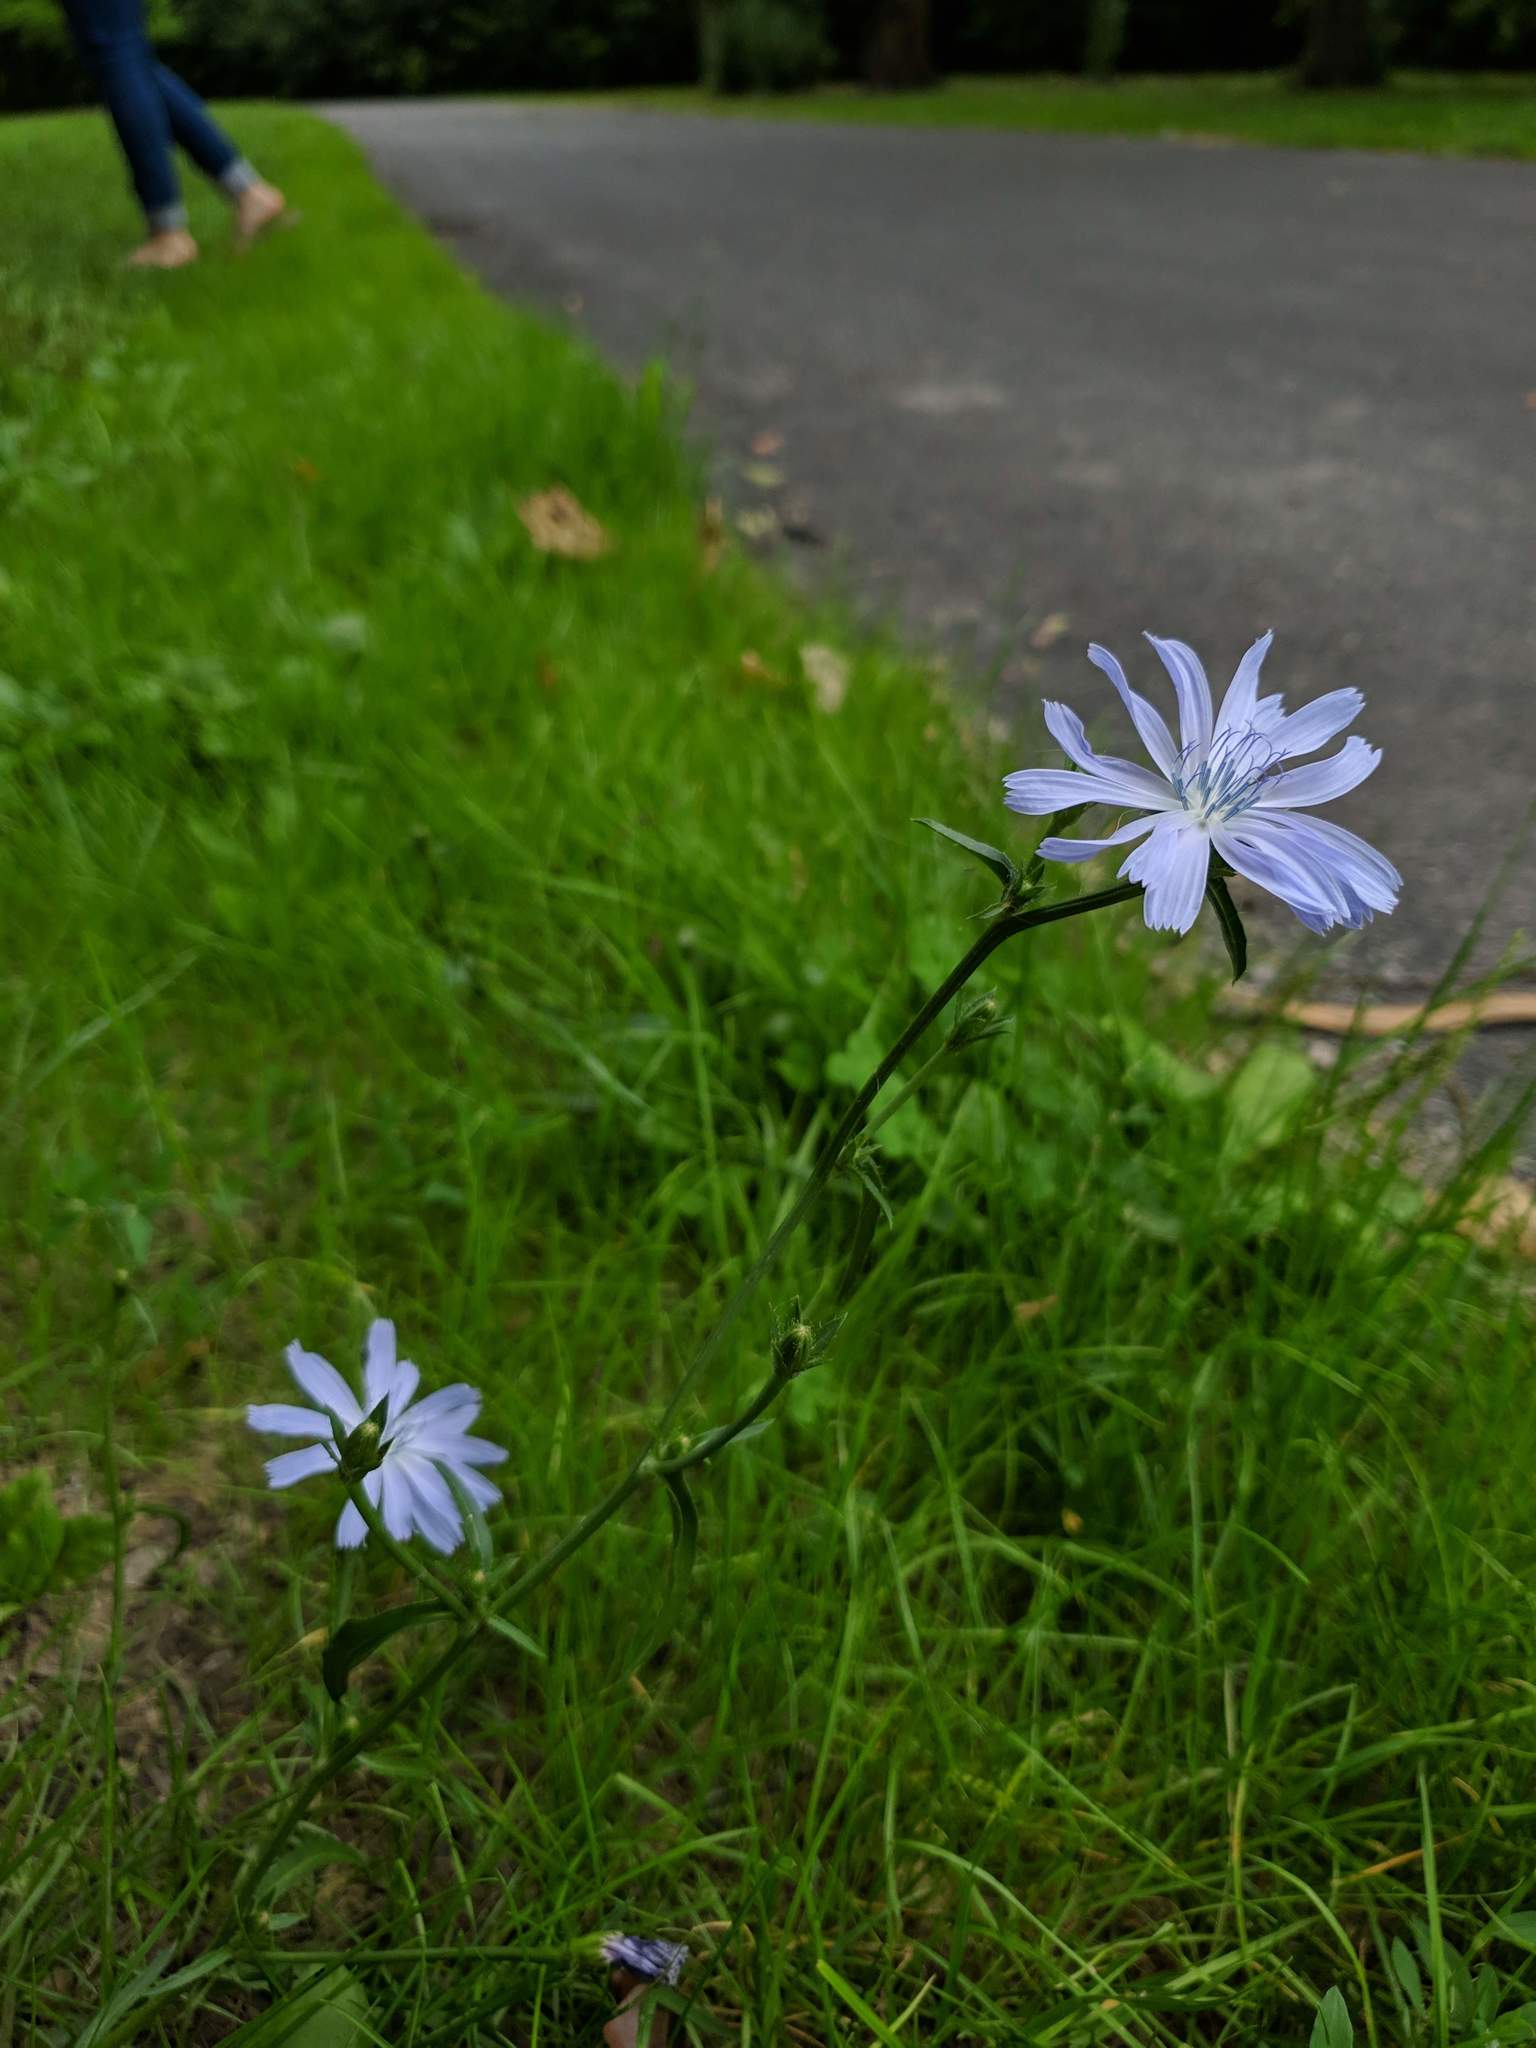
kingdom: Plantae
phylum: Tracheophyta
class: Magnoliopsida
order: Asterales
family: Asteraceae
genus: Cichorium
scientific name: Cichorium intybus
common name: Chicory
